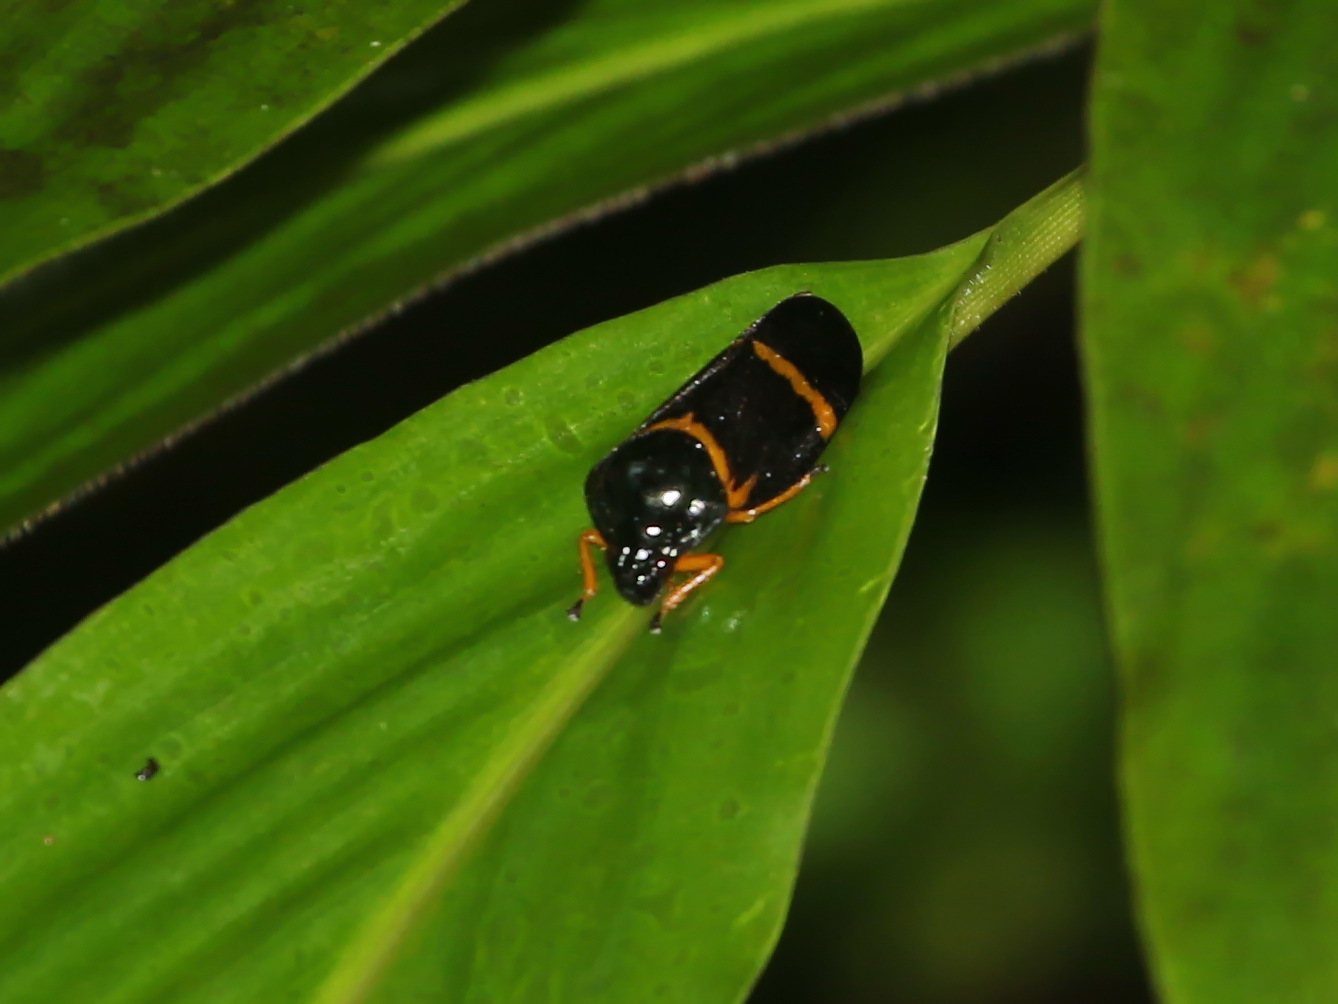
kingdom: Animalia
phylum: Arthropoda
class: Insecta
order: Hemiptera
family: Cercopidae
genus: Cosmoscarta
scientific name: Cosmoscarta egeria
